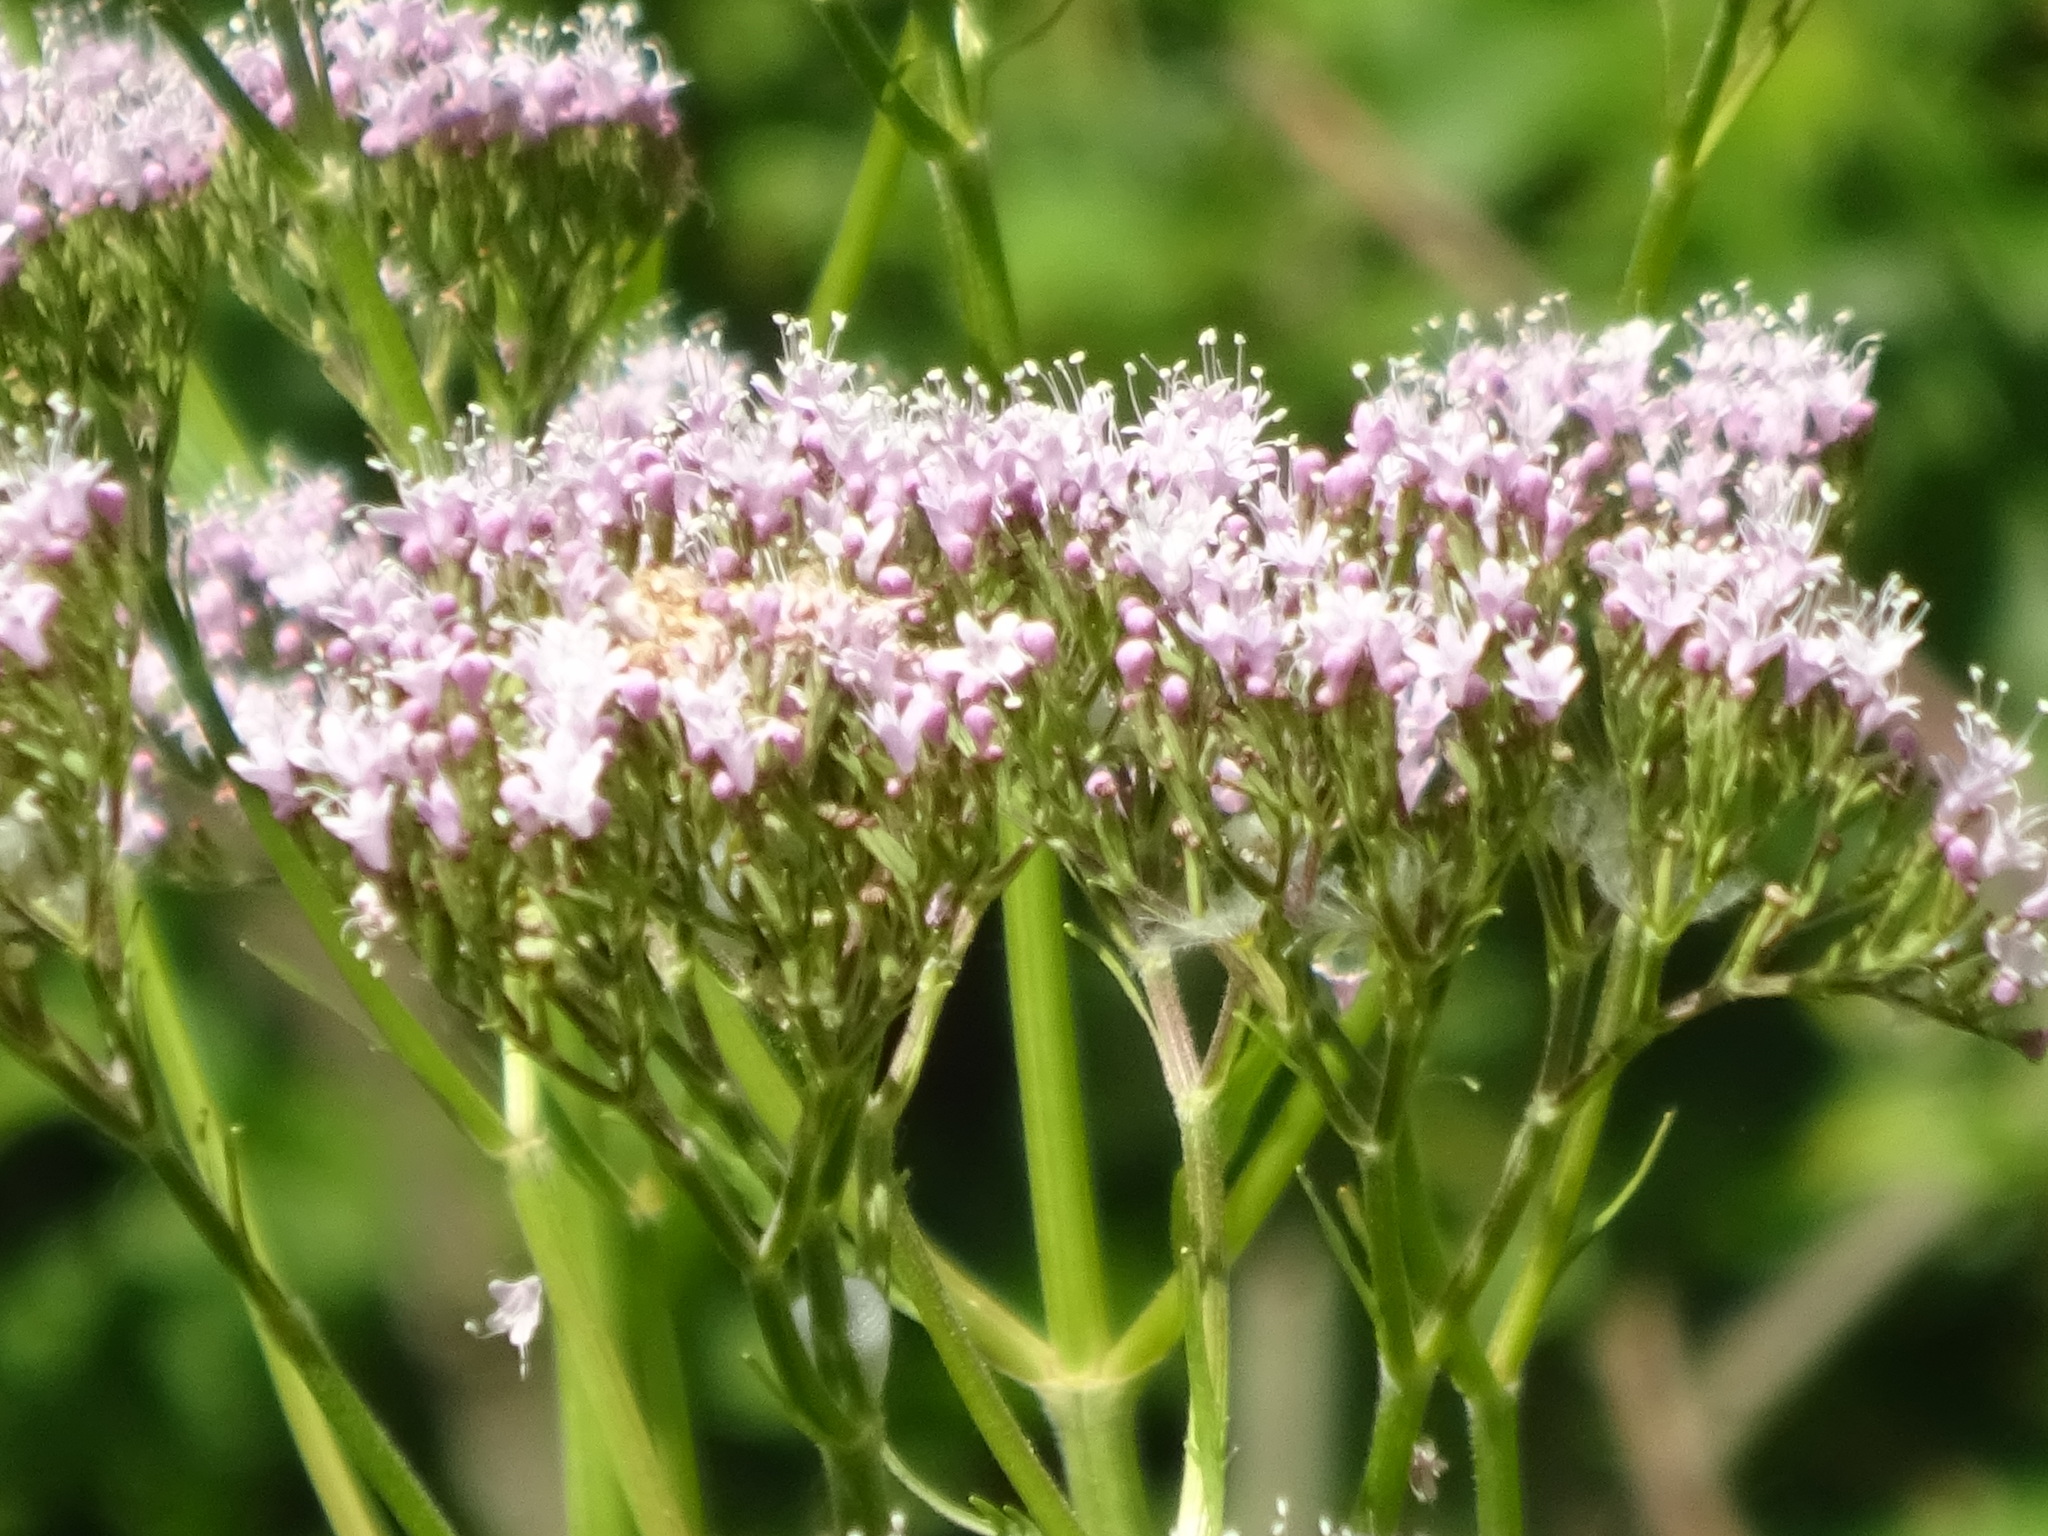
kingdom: Plantae
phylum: Tracheophyta
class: Magnoliopsida
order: Dipsacales
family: Caprifoliaceae
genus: Valeriana
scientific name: Valeriana pyrenaica
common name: Pyrenean valerian
